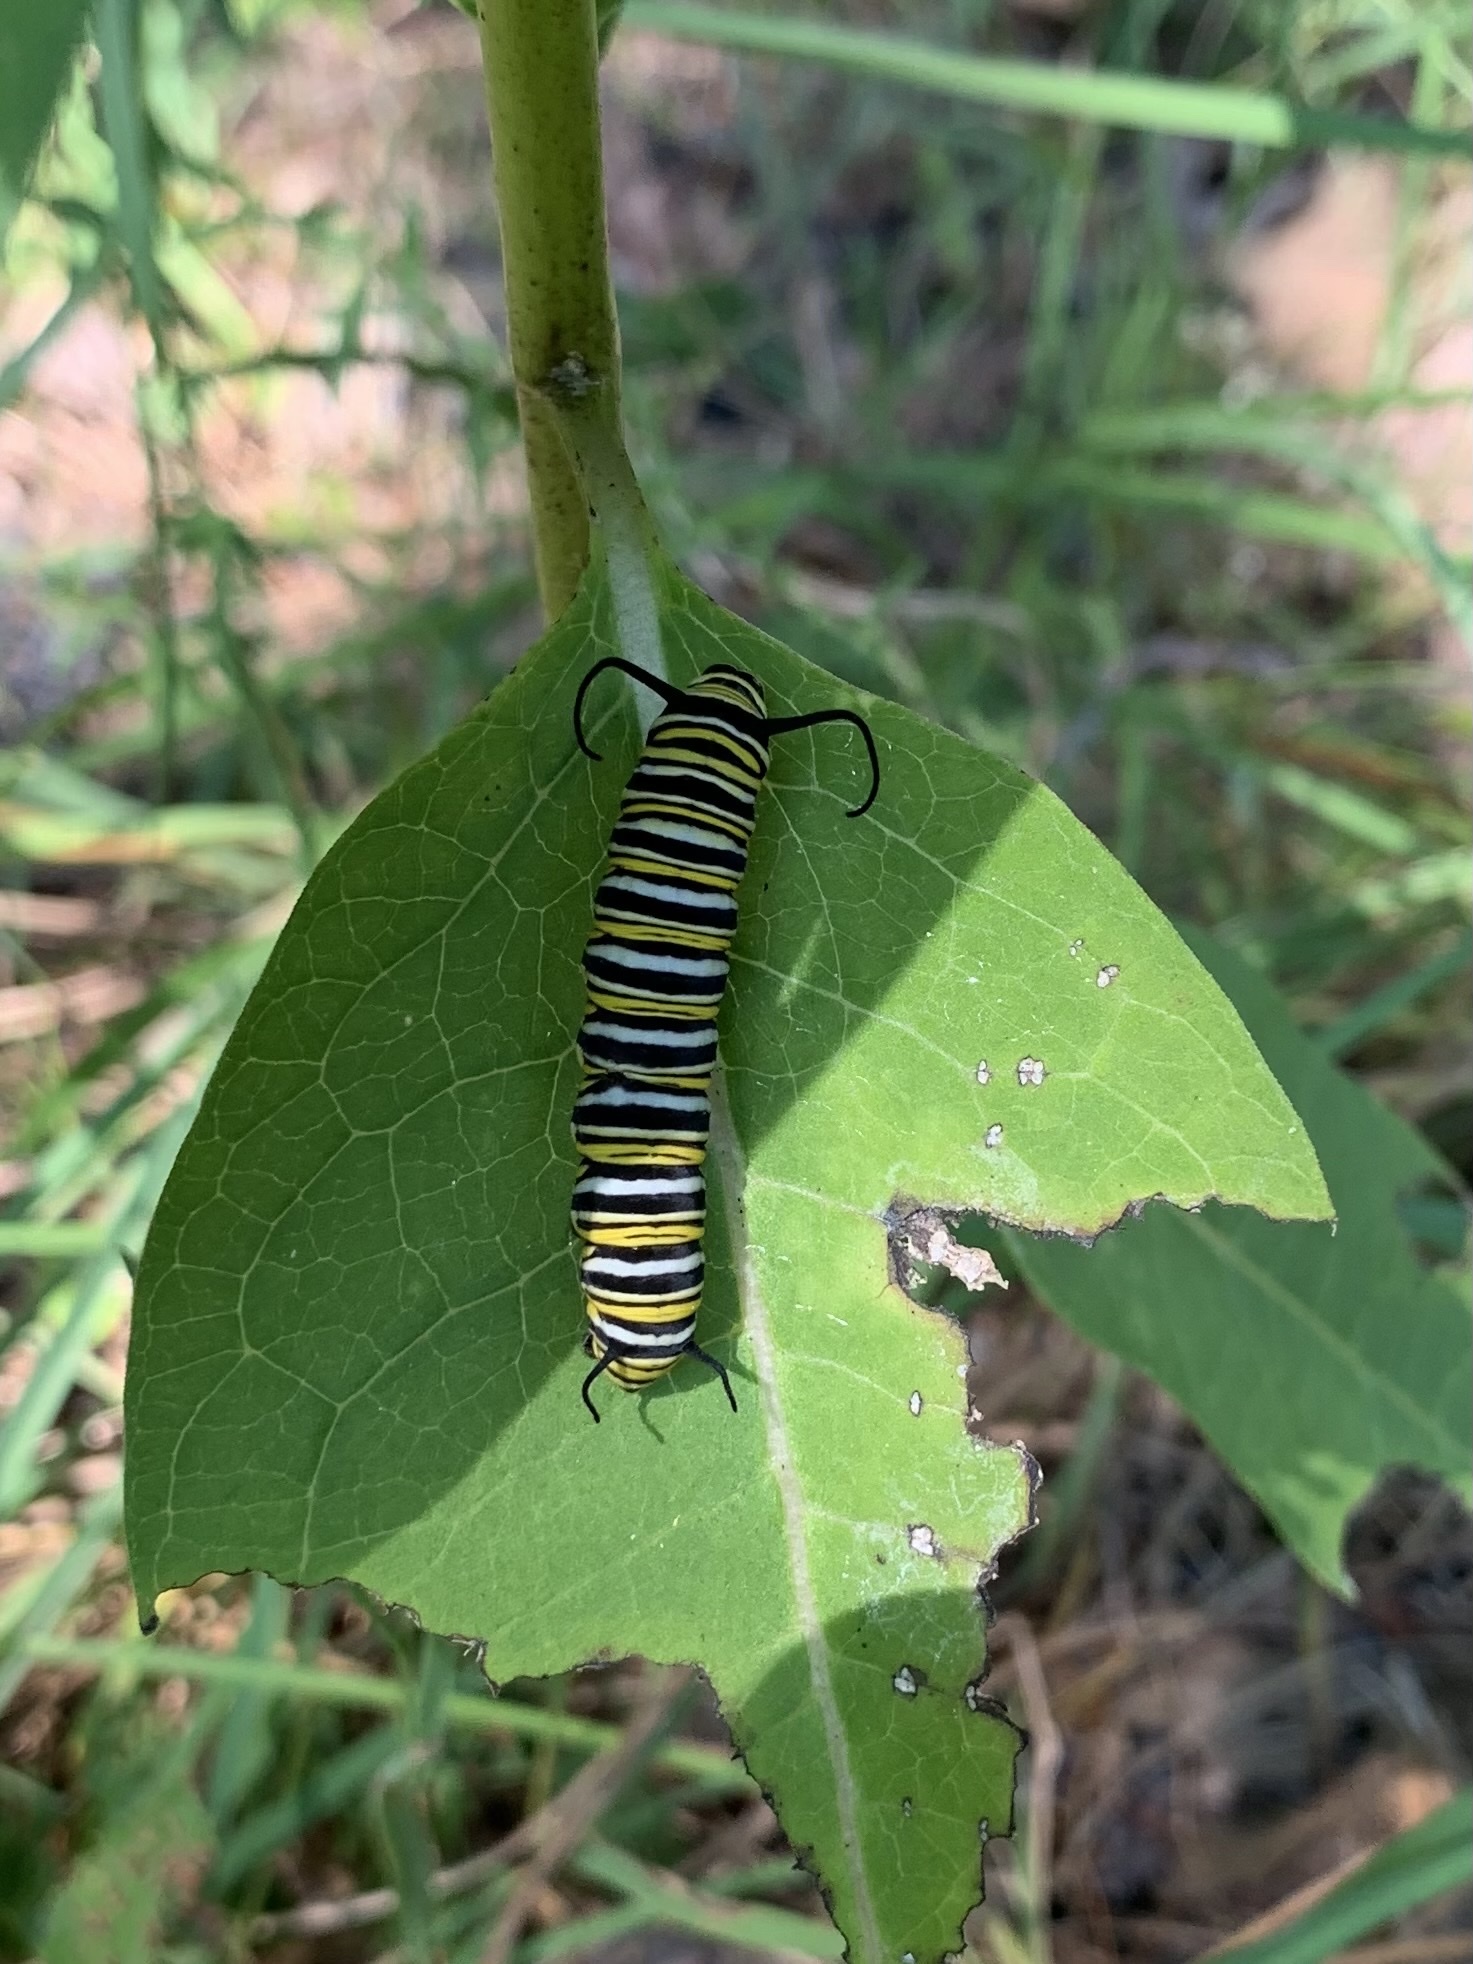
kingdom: Animalia
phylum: Arthropoda
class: Insecta
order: Lepidoptera
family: Nymphalidae
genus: Danaus
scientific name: Danaus plexippus
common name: Monarch
